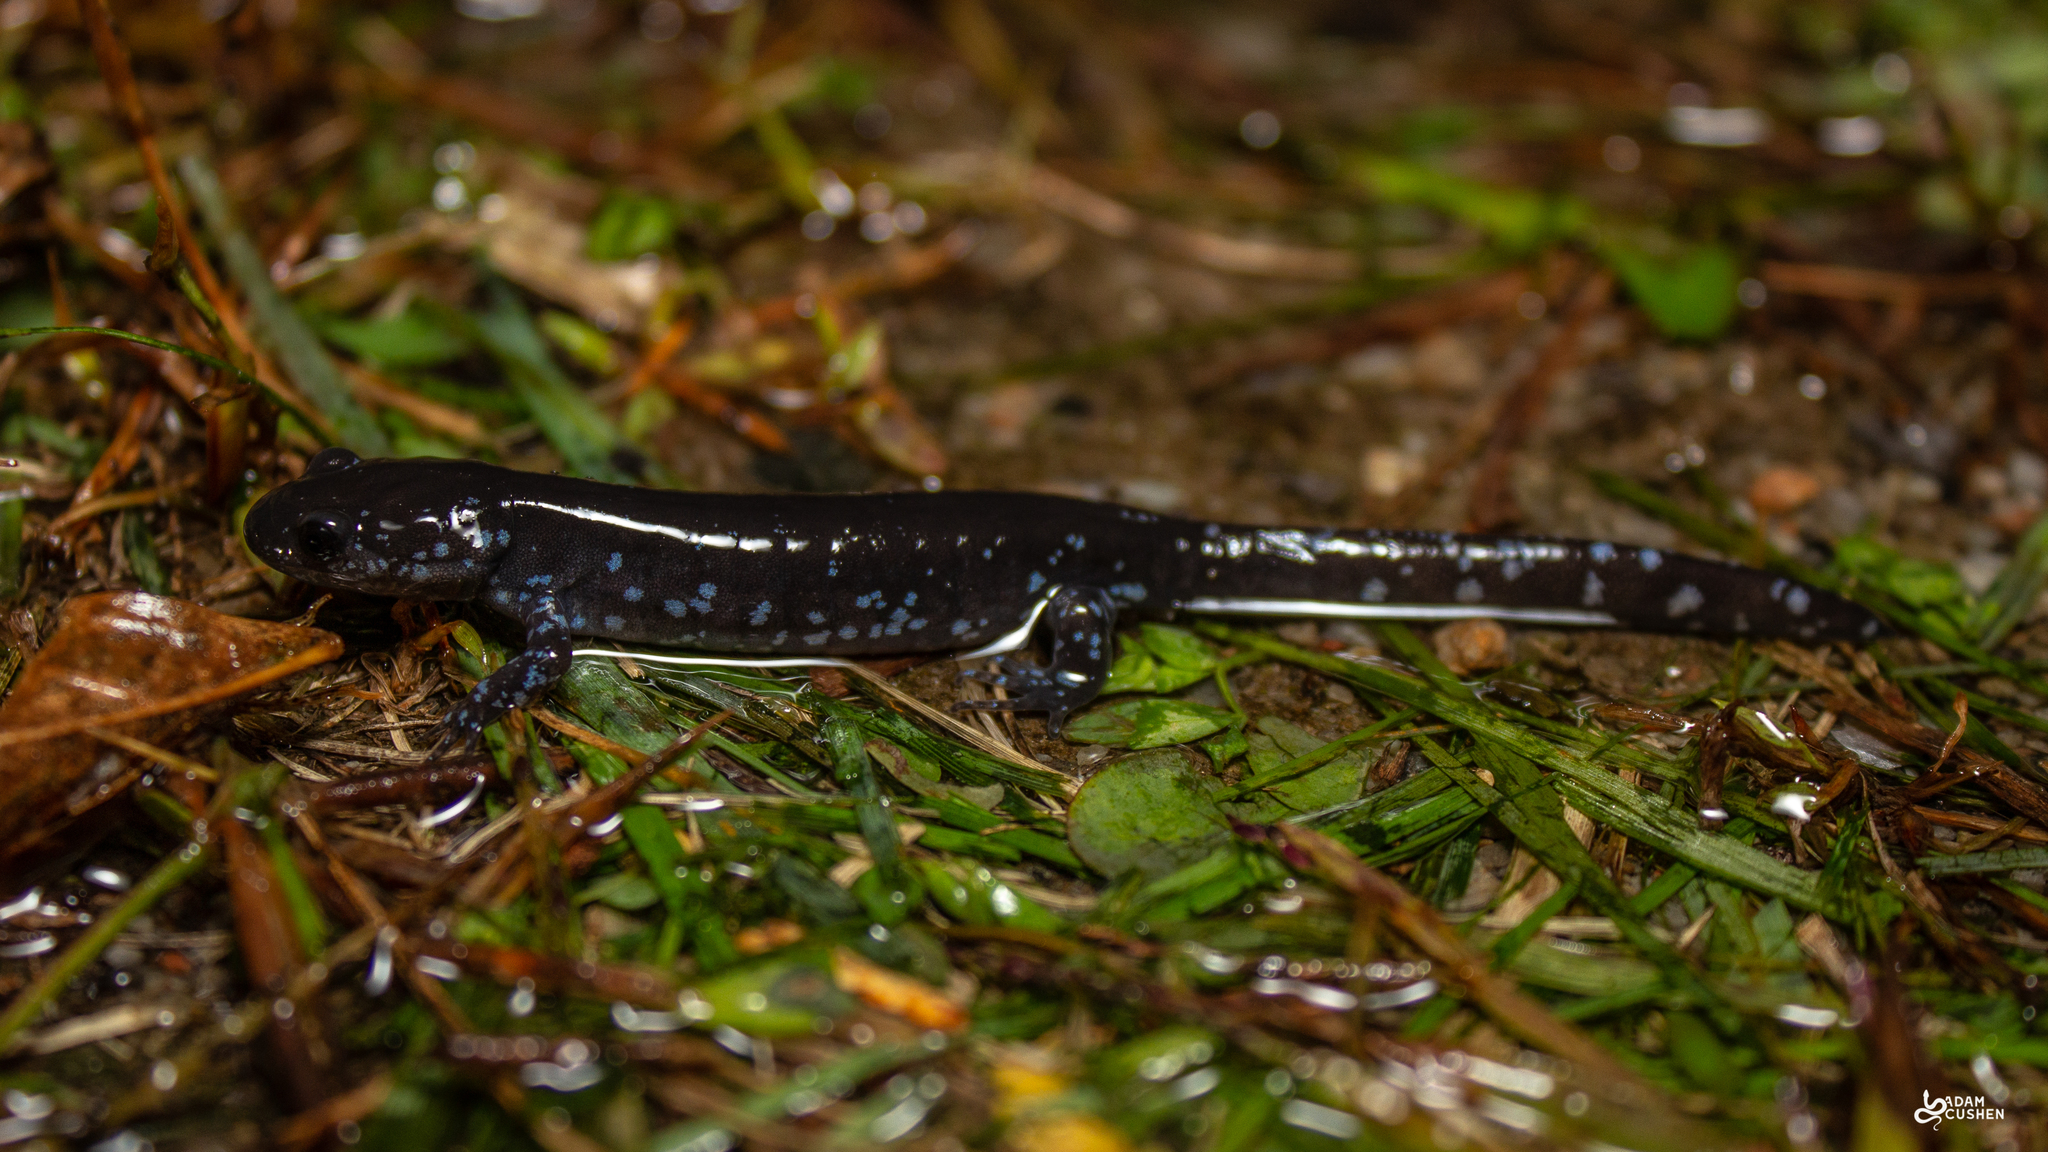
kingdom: Animalia
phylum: Chordata
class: Amphibia
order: Caudata
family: Ambystomatidae
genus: Ambystoma
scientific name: Ambystoma laterale
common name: Blue-spotted salamander
